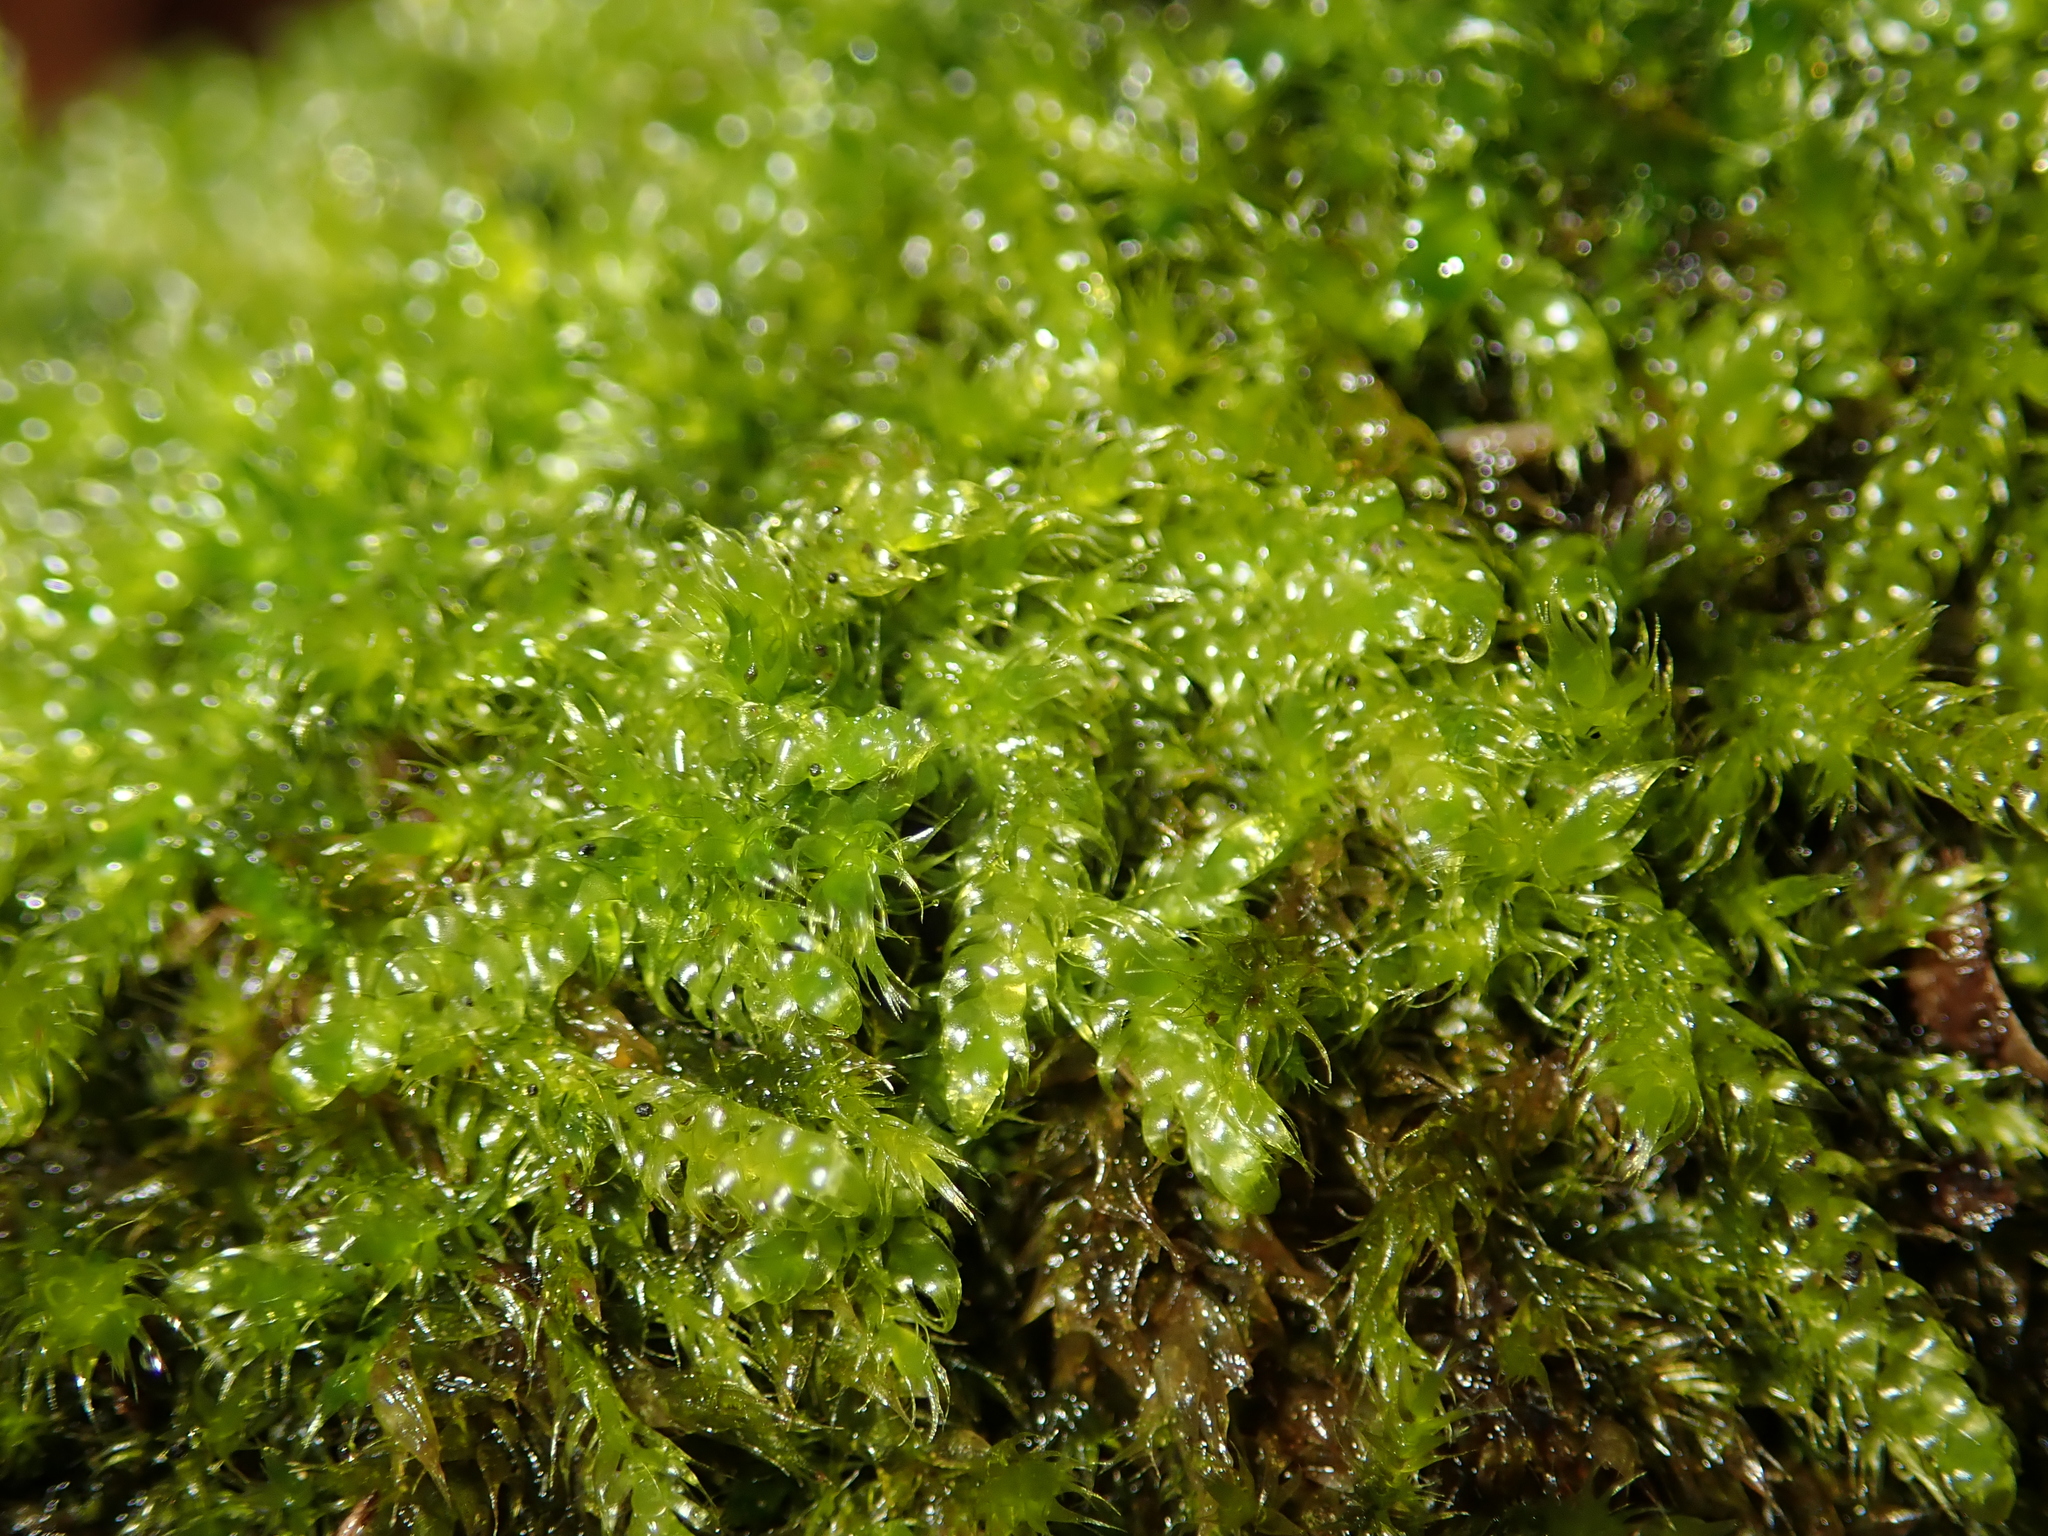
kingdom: Plantae
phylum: Bryophyta
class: Bryopsida
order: Hypnales
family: Hypnaceae
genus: Hypnum
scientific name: Hypnum cupressiforme
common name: Cypress-leaved plait-moss
